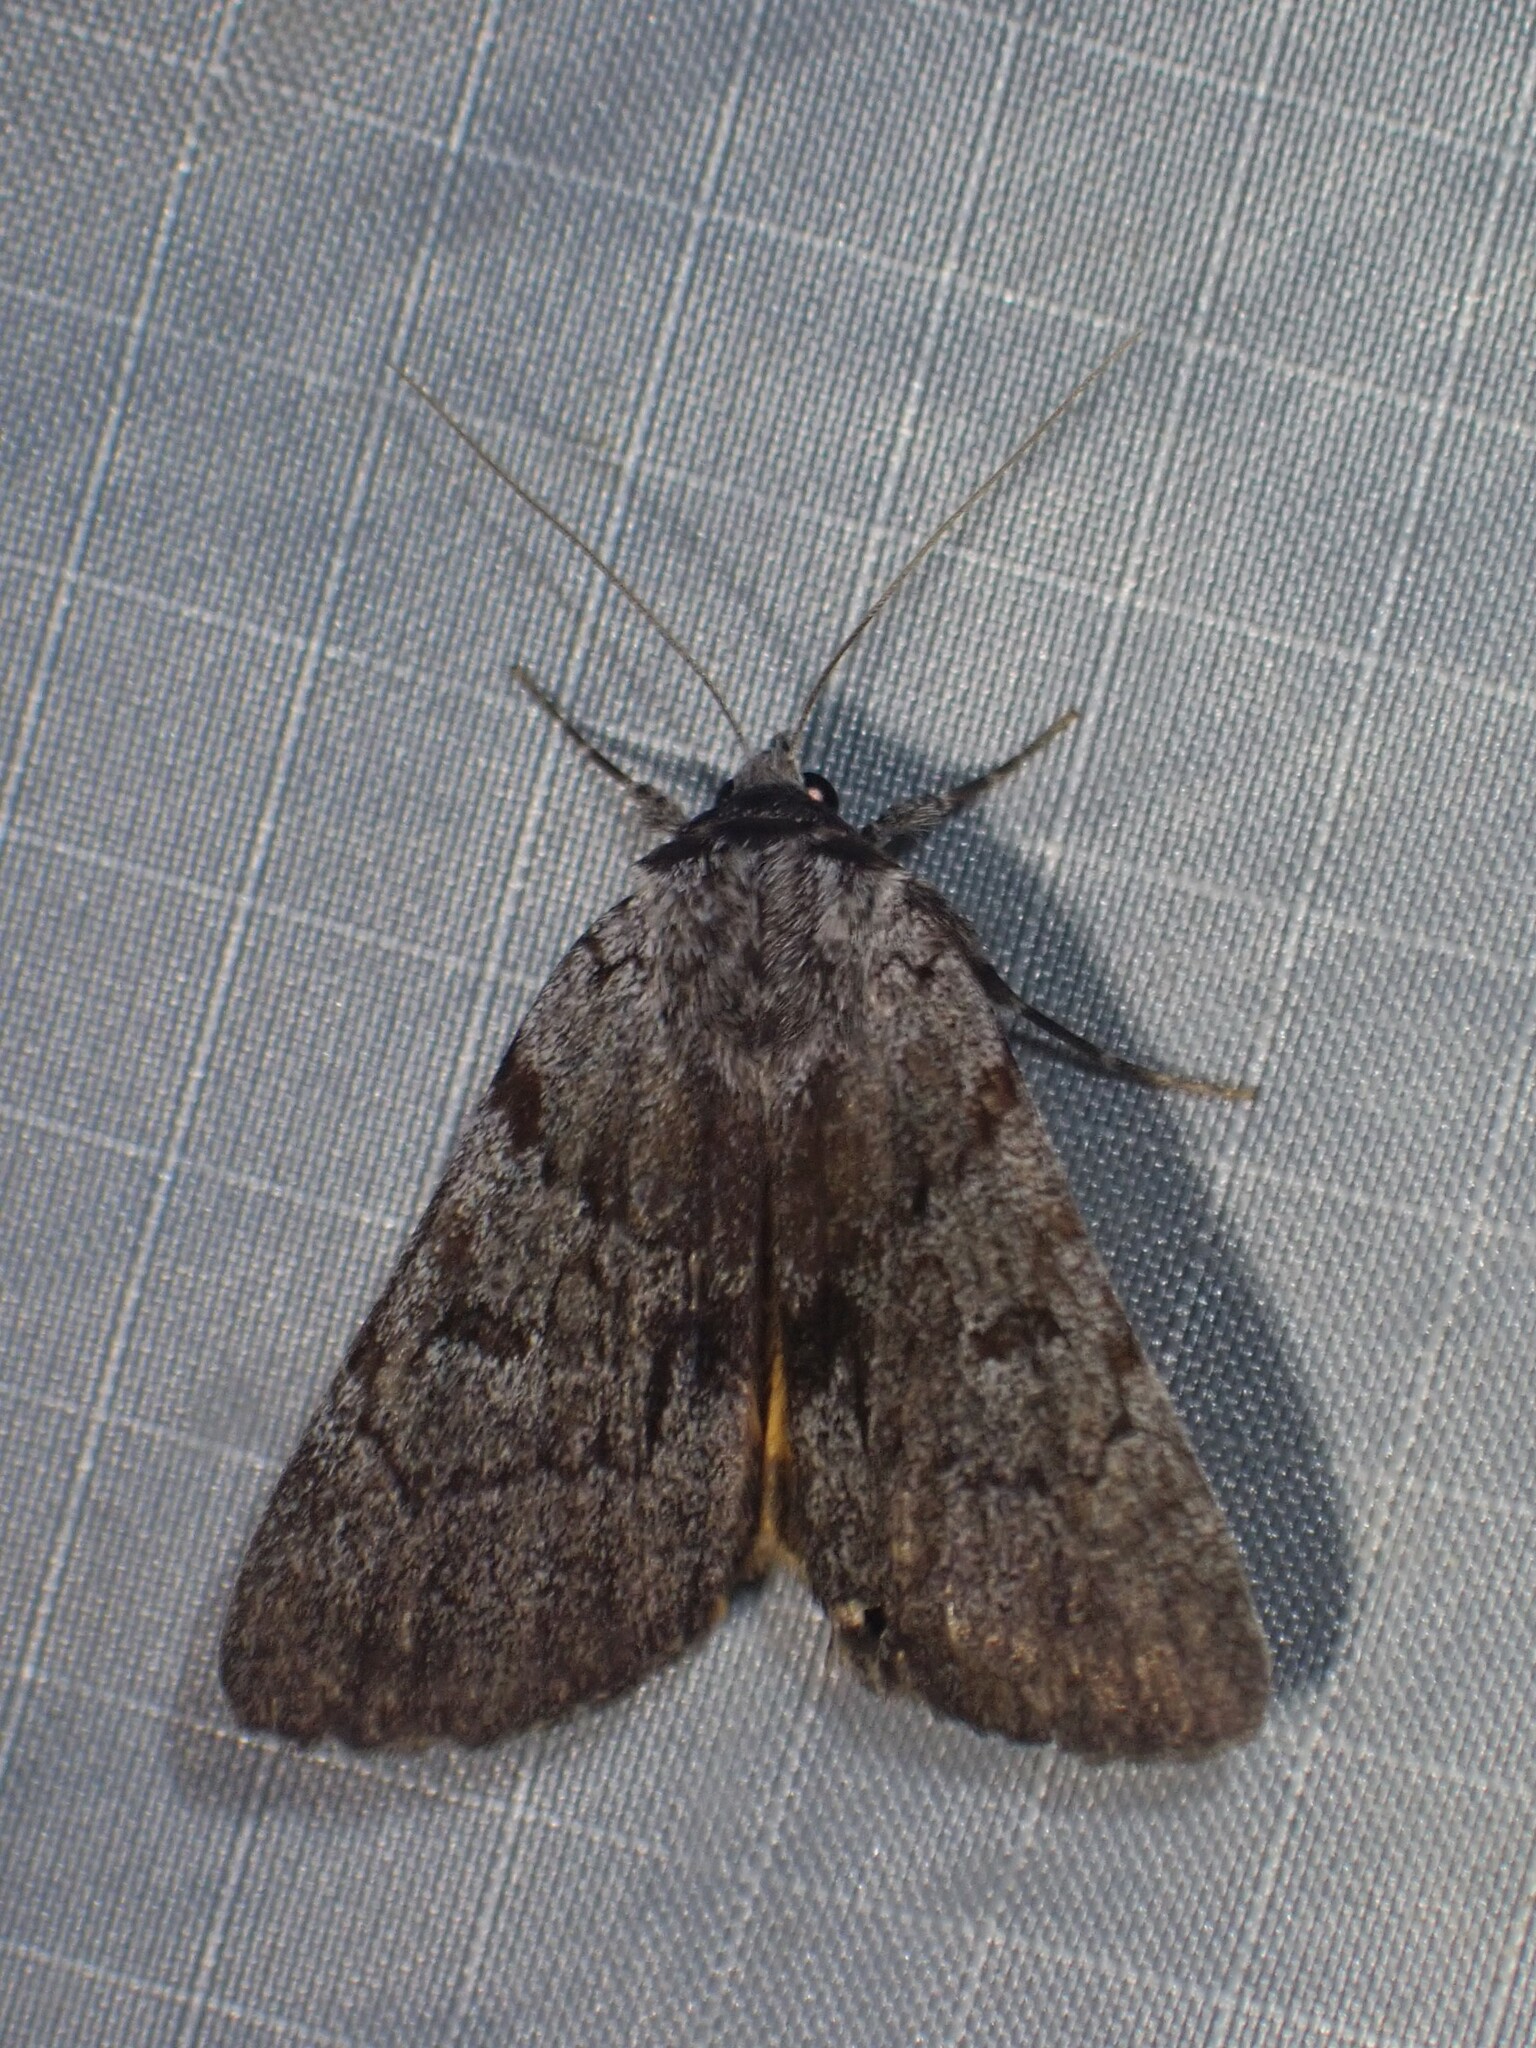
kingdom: Animalia
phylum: Arthropoda
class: Insecta
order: Lepidoptera
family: Erebidae
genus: Catocala
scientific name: Catocala sordida
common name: Sordid underwing
